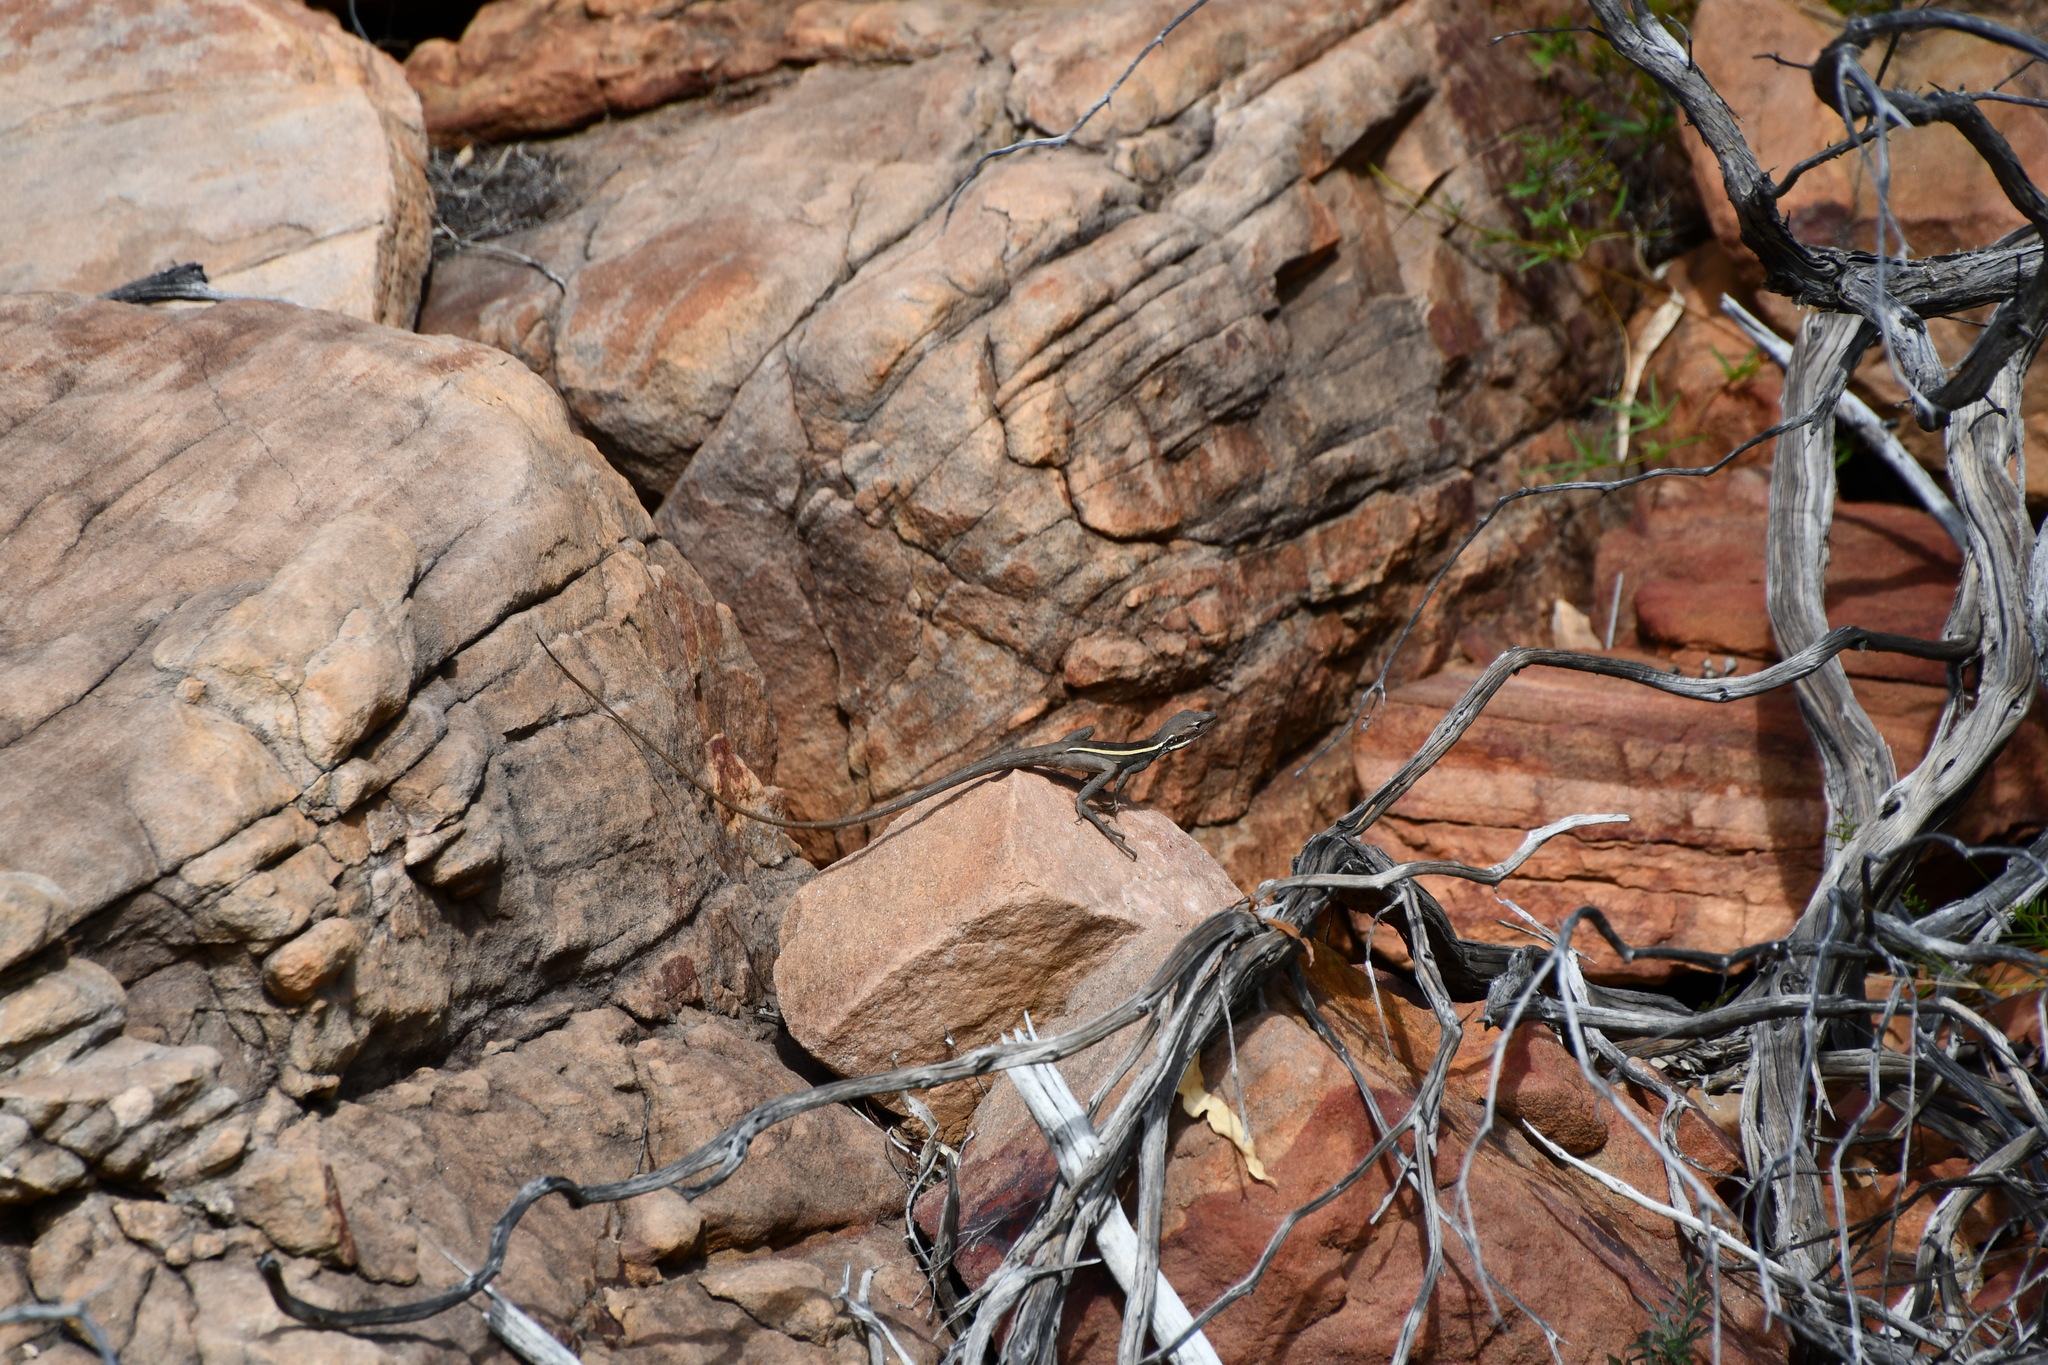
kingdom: Animalia
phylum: Chordata
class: Squamata
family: Agamidae
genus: Gowidon
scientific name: Gowidon longirostris
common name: Long-nosed water dragon
